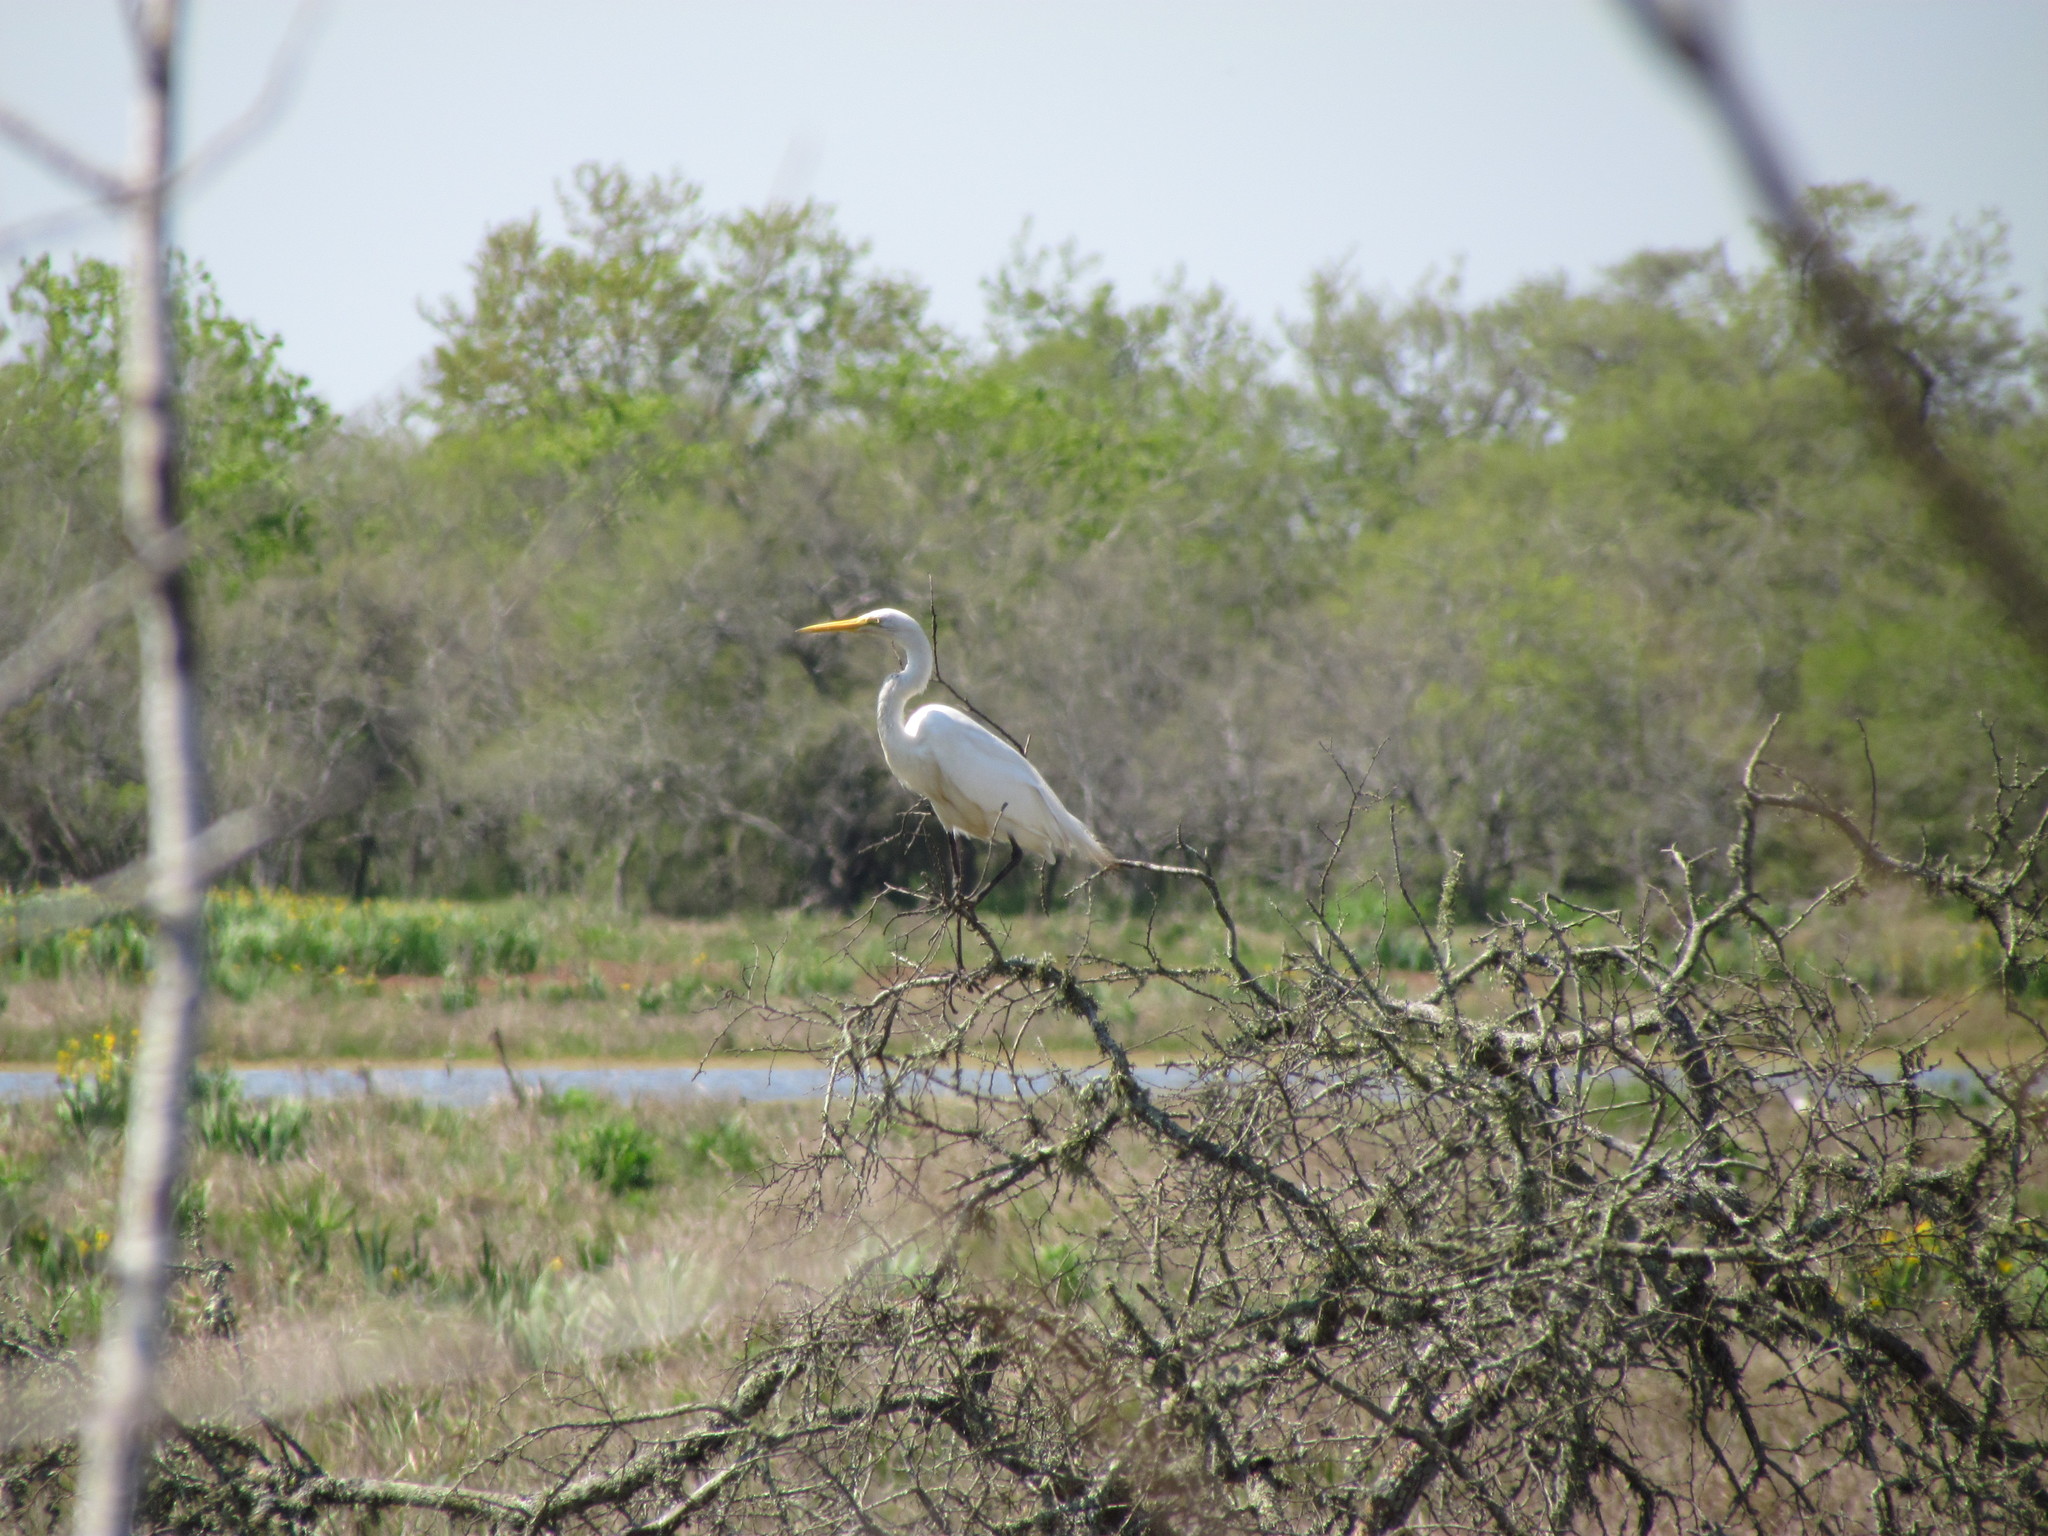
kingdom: Animalia
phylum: Chordata
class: Aves
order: Pelecaniformes
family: Ardeidae
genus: Ardea
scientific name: Ardea alba
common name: Great egret
